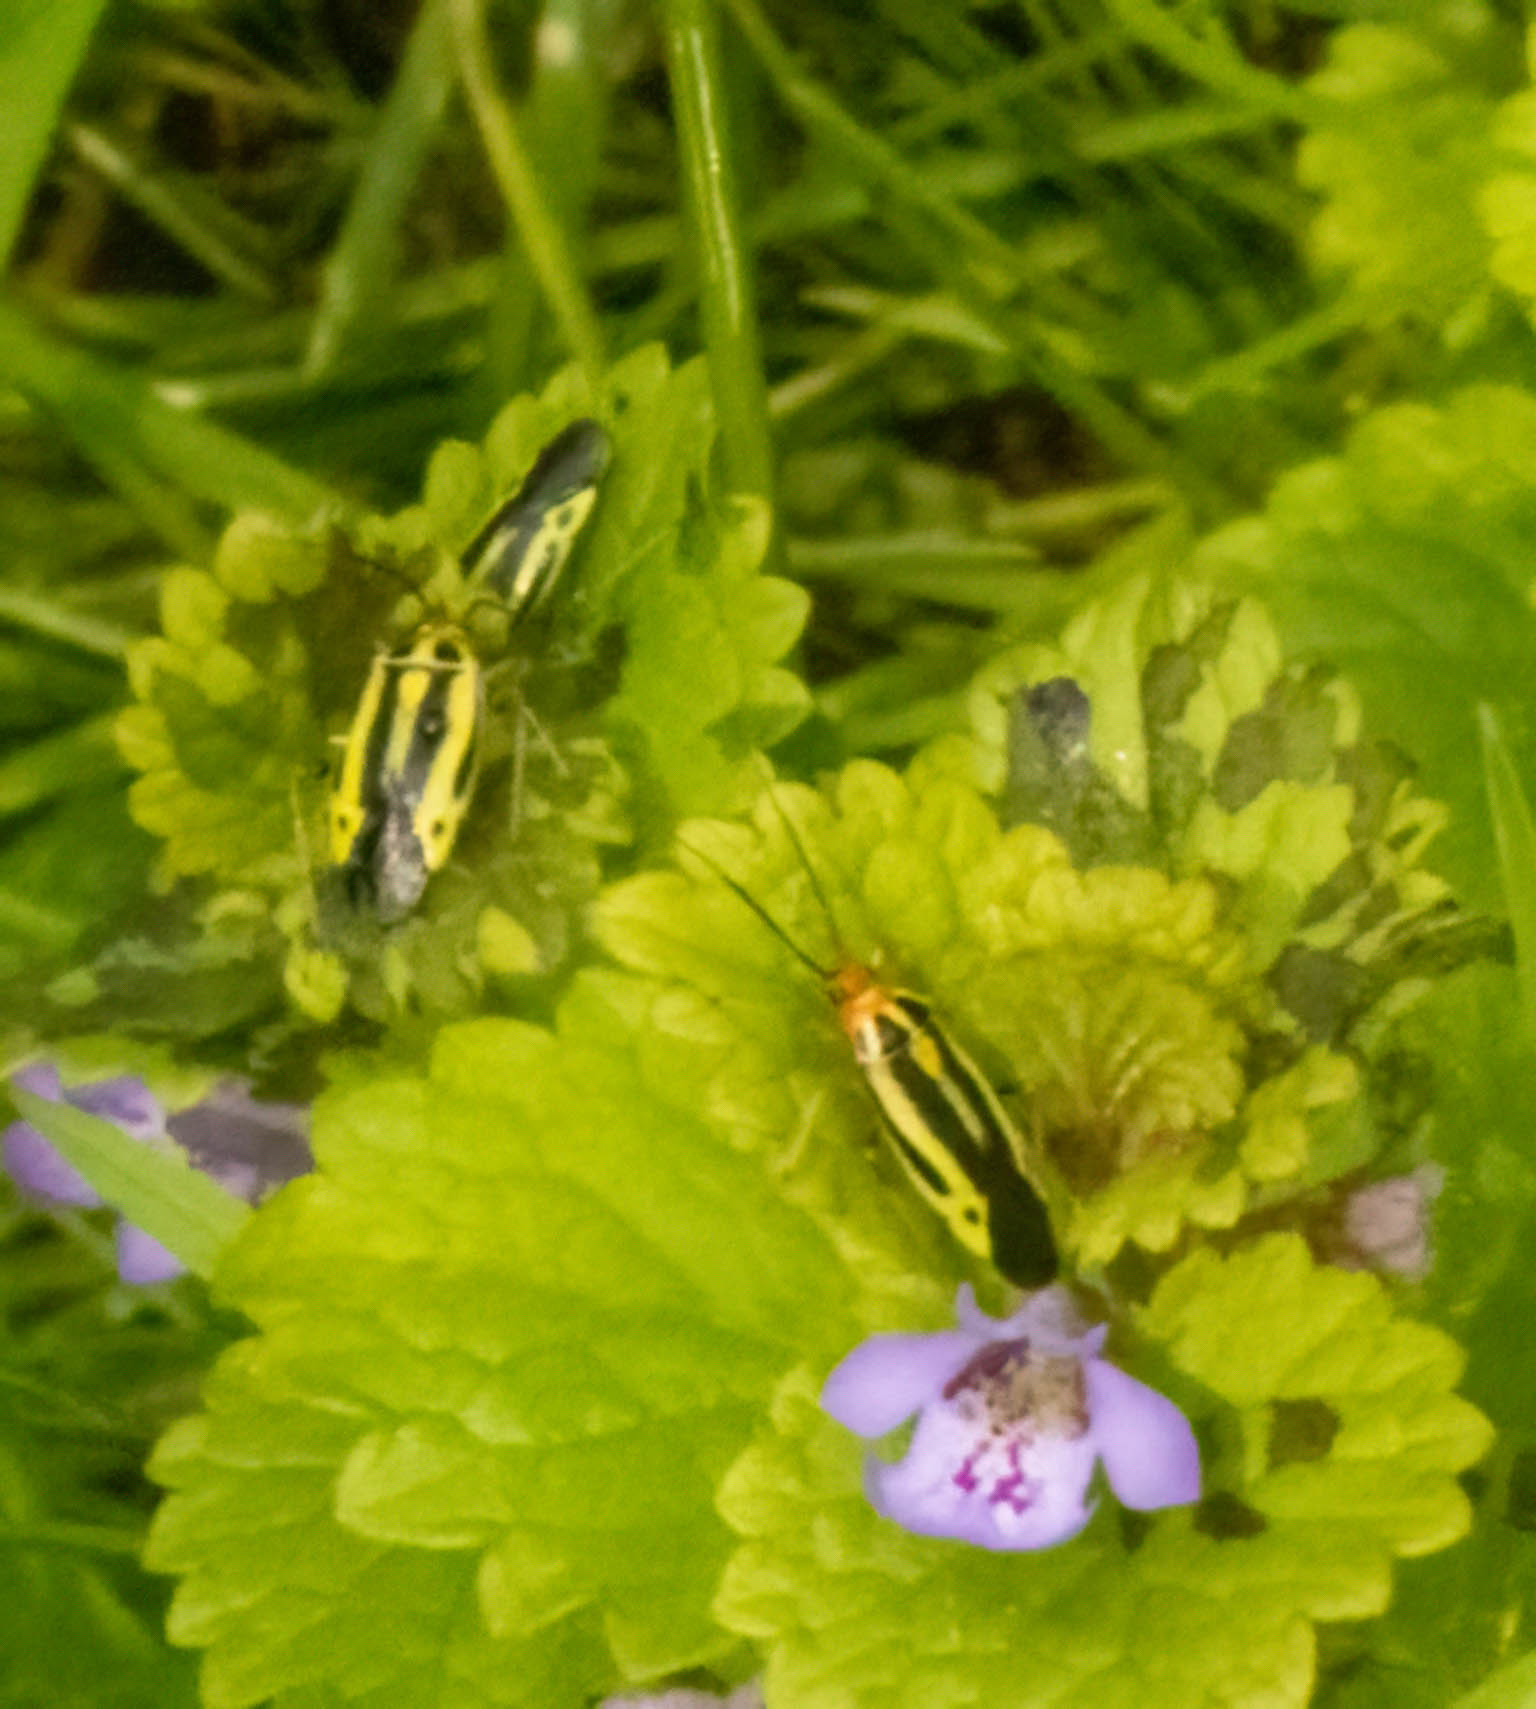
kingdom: Animalia
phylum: Arthropoda
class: Insecta
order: Hemiptera
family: Miridae
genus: Poecilocapsus
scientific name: Poecilocapsus lineatus
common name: Four-lined plant bug
